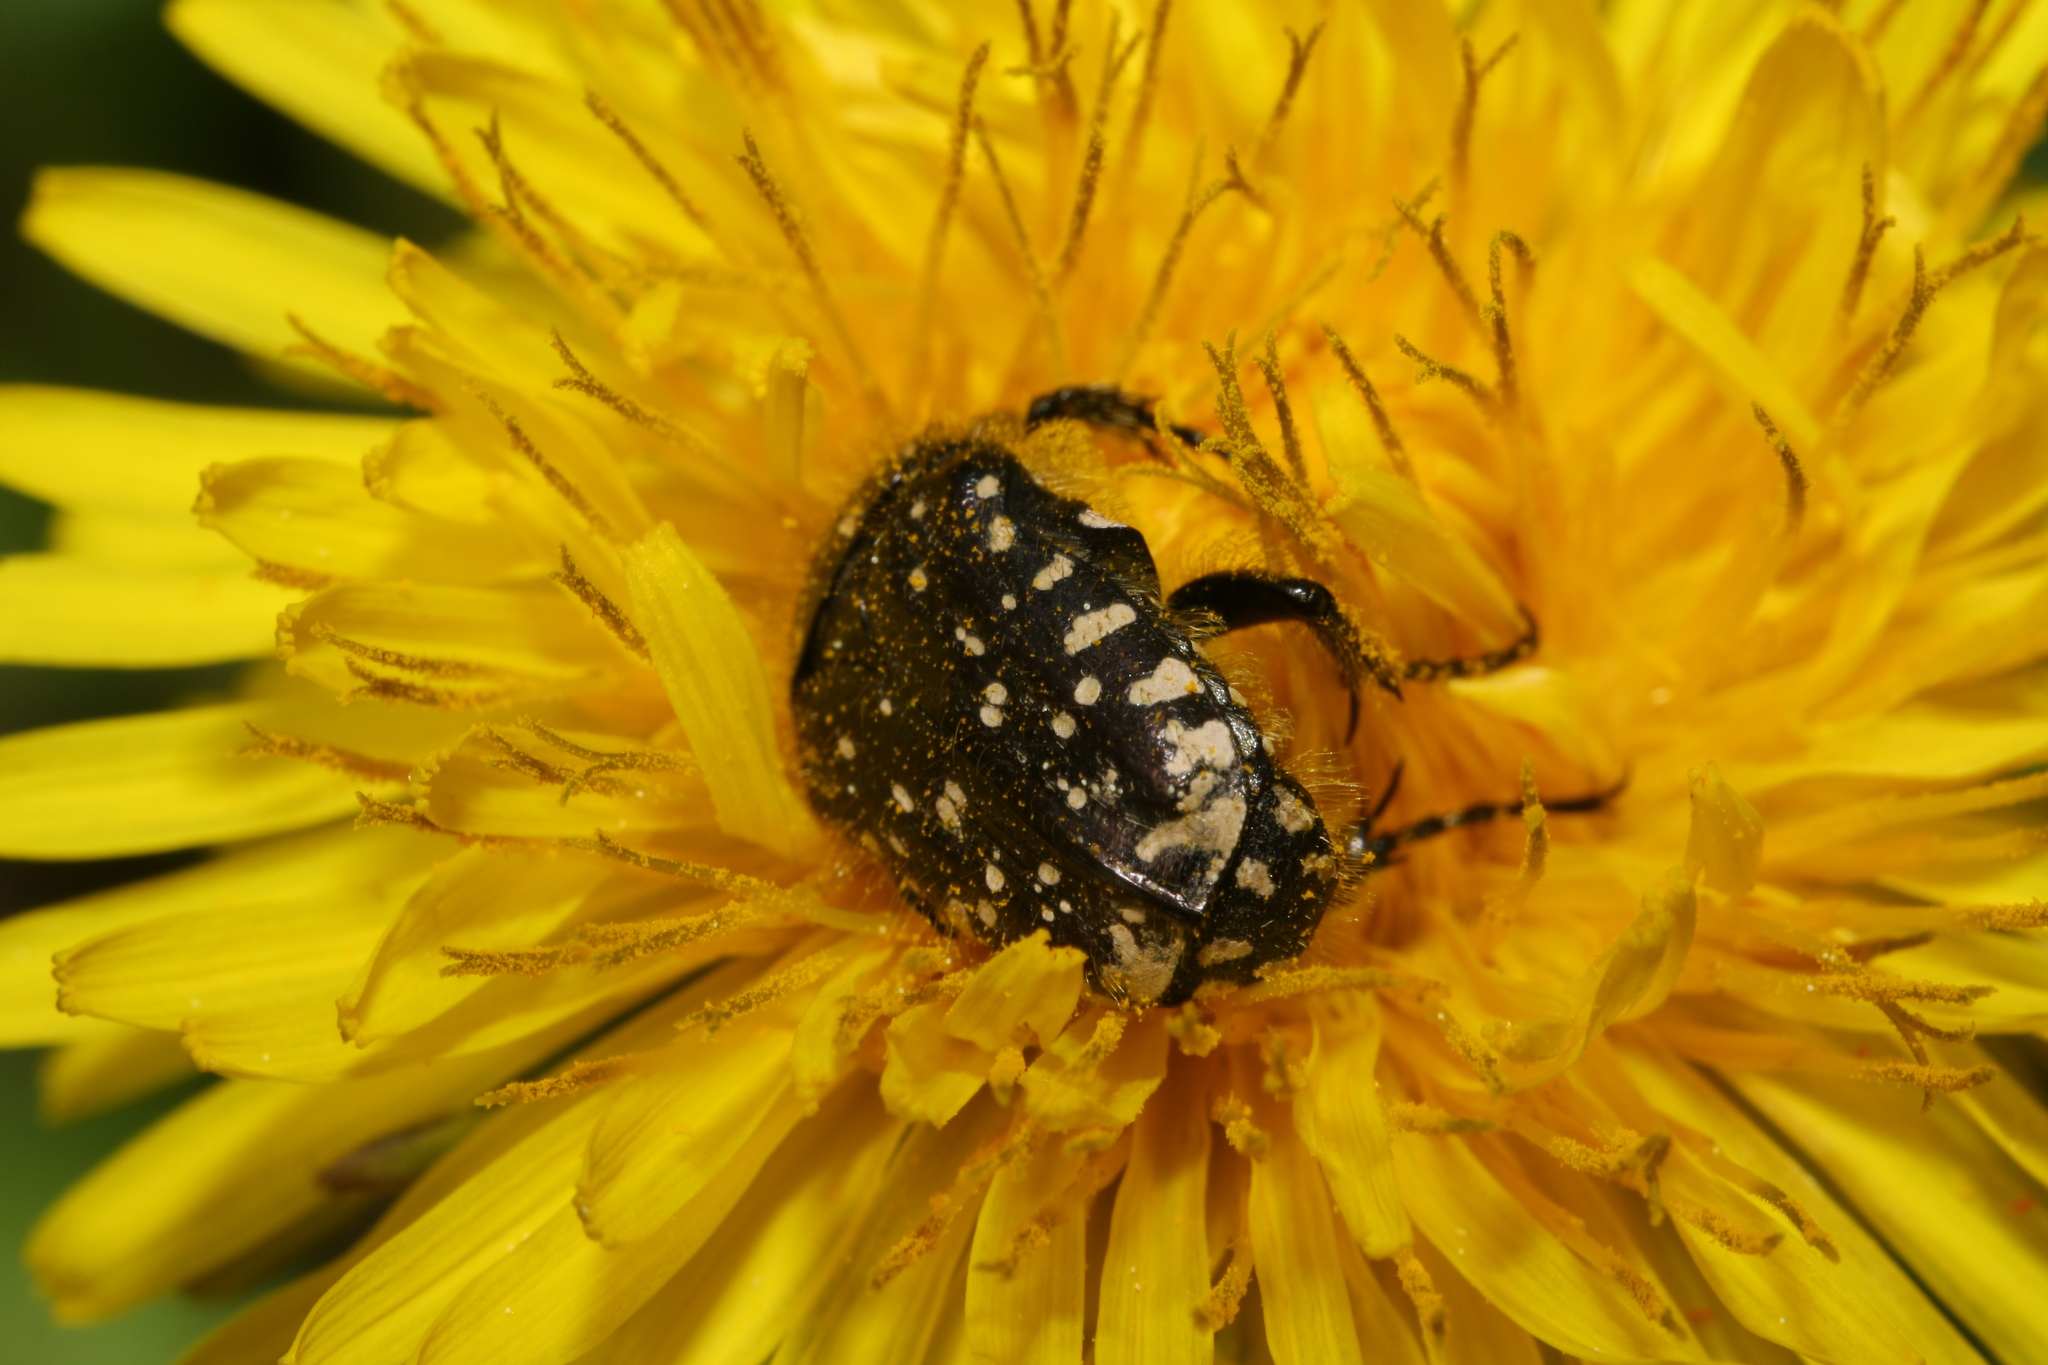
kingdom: Animalia
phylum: Arthropoda
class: Insecta
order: Coleoptera
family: Scarabaeidae
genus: Oxythyrea
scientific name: Oxythyrea funesta
